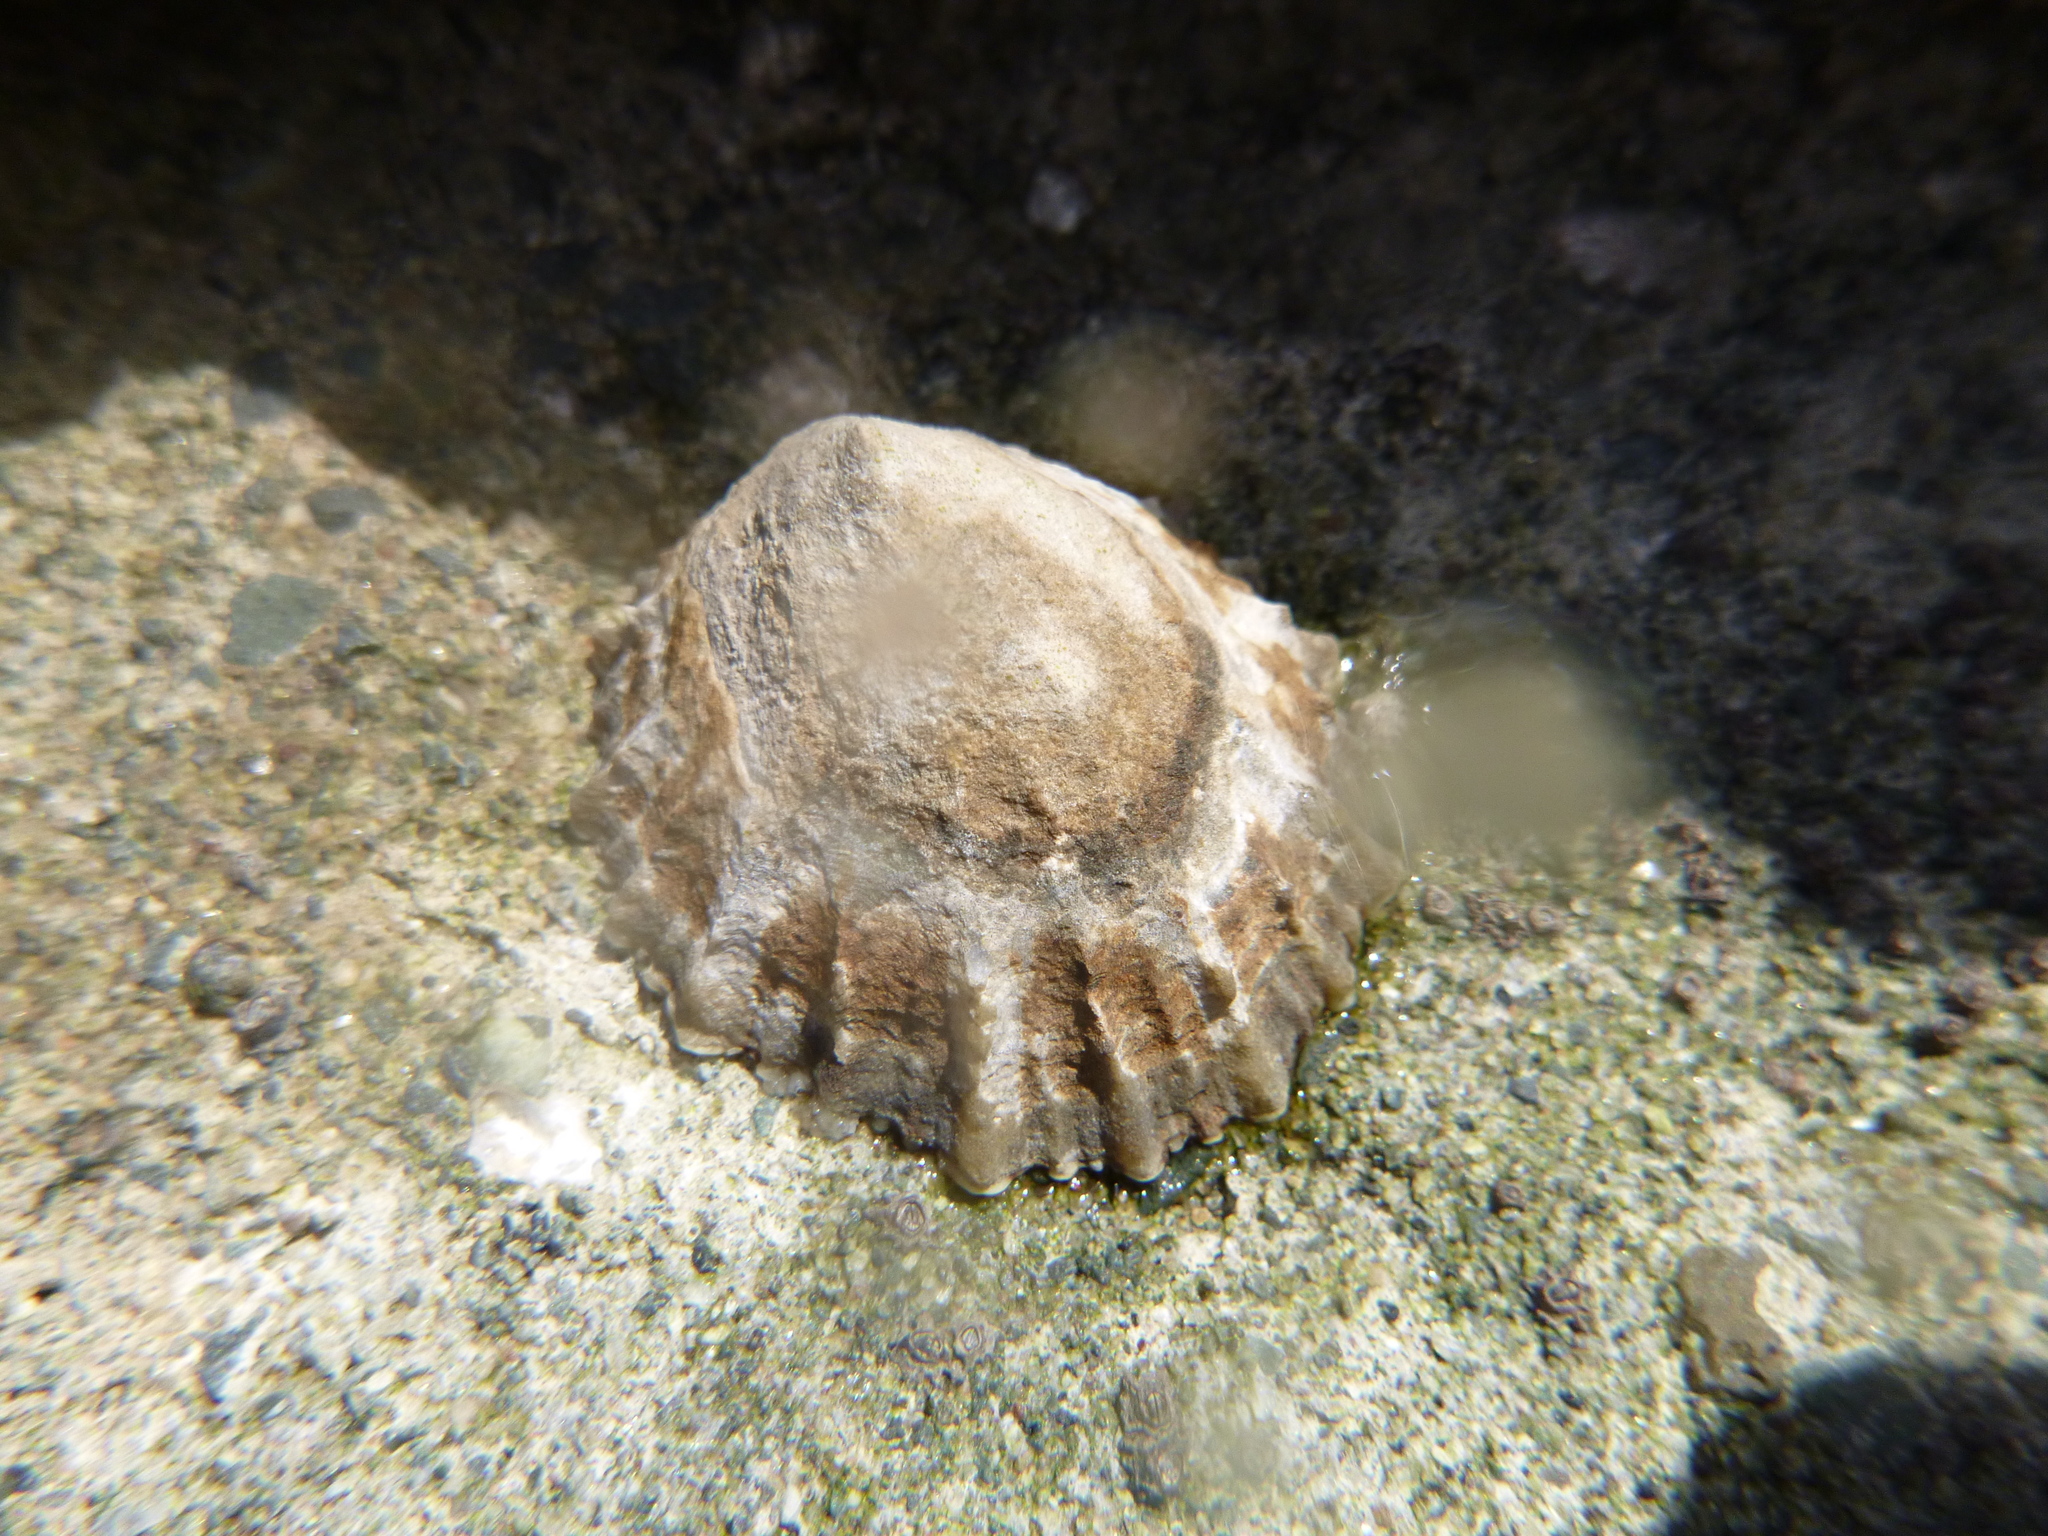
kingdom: Animalia
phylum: Mollusca
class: Gastropoda
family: Nacellidae
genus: Cellana
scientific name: Cellana ornata
